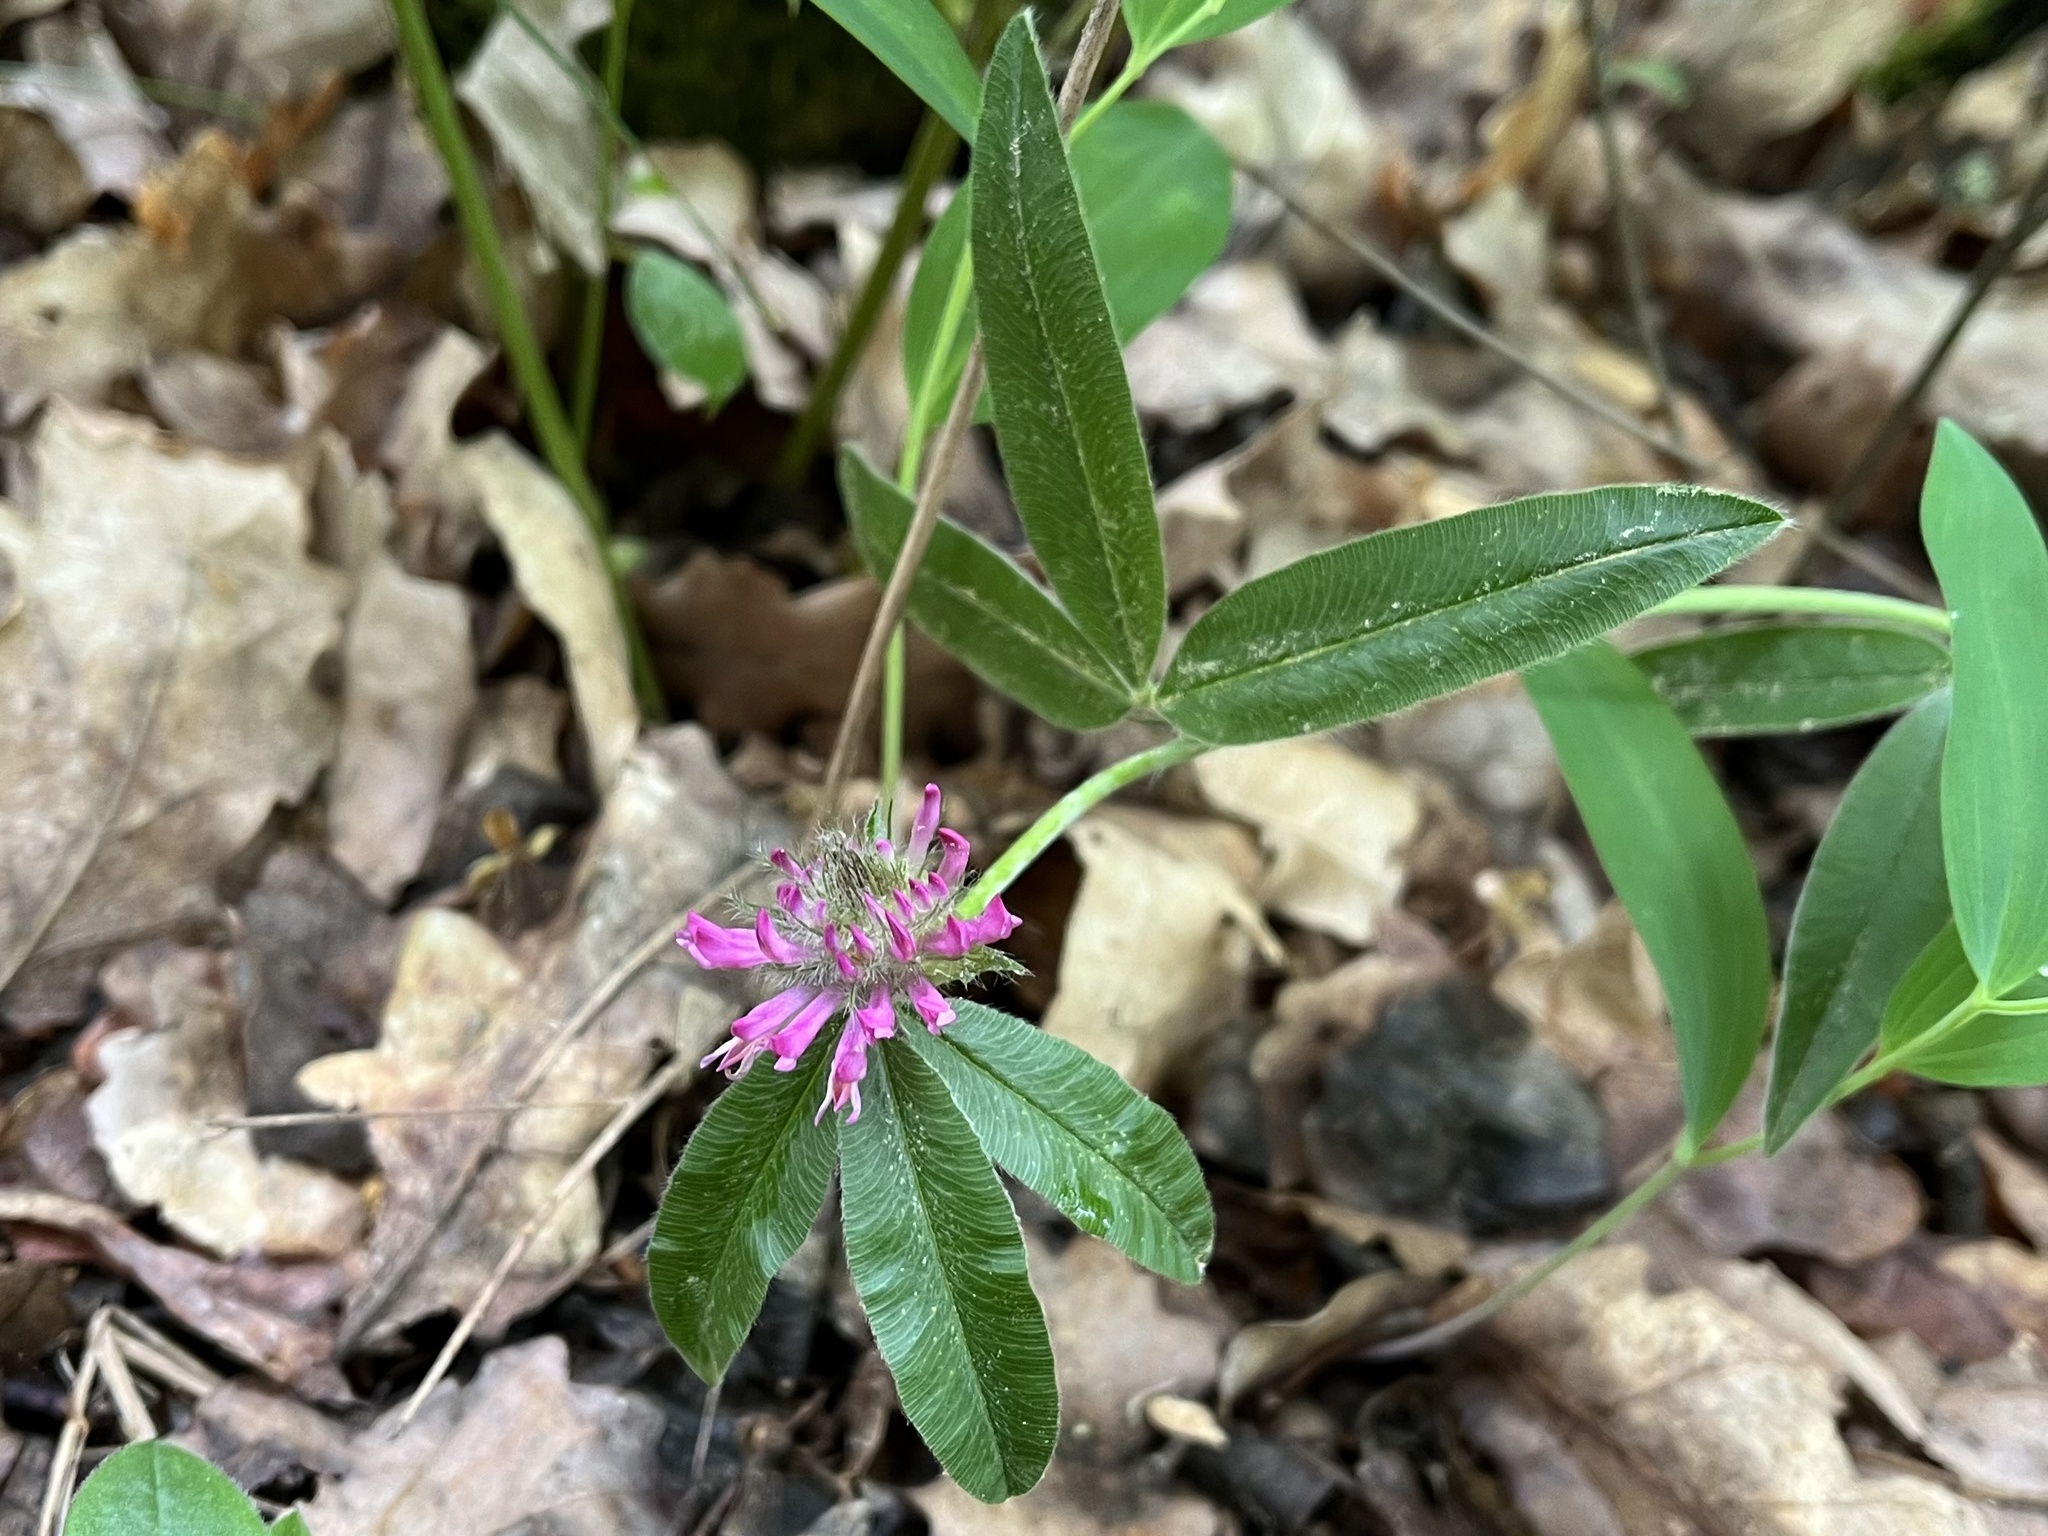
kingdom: Plantae
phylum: Tracheophyta
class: Magnoliopsida
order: Fabales
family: Fabaceae
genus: Trifolium
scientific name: Trifolium alpestre
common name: Owl-head clover
